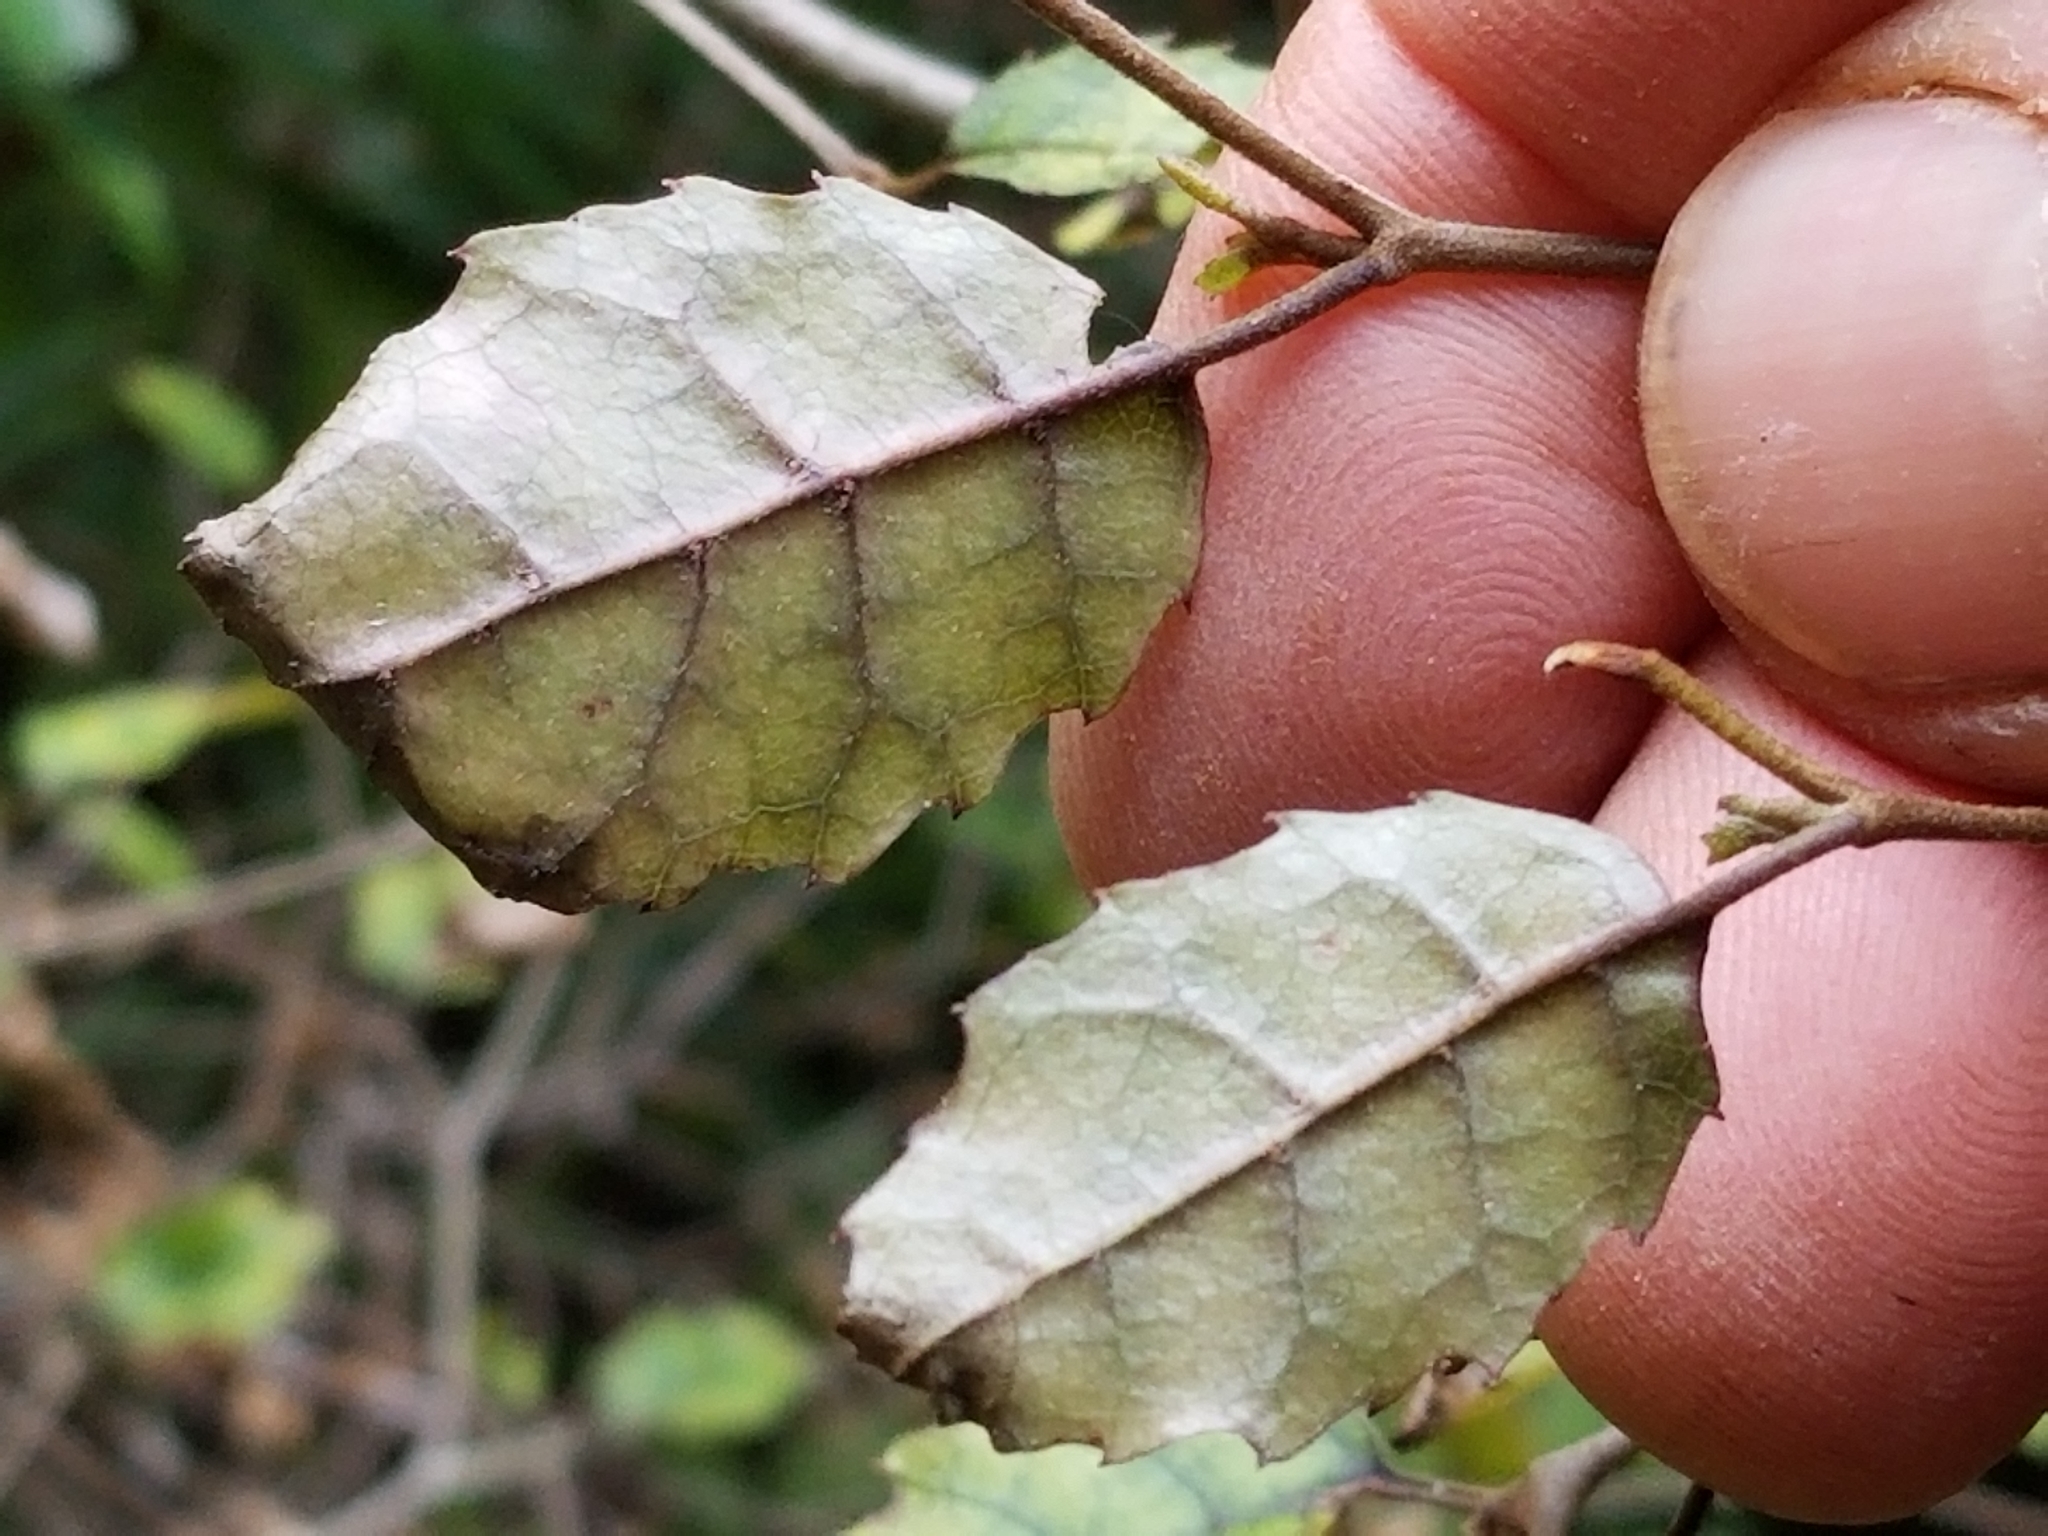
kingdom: Plantae
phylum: Tracheophyta
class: Magnoliopsida
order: Asterales
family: Rousseaceae
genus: Carpodetus
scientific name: Carpodetus serratus
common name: White mapau
